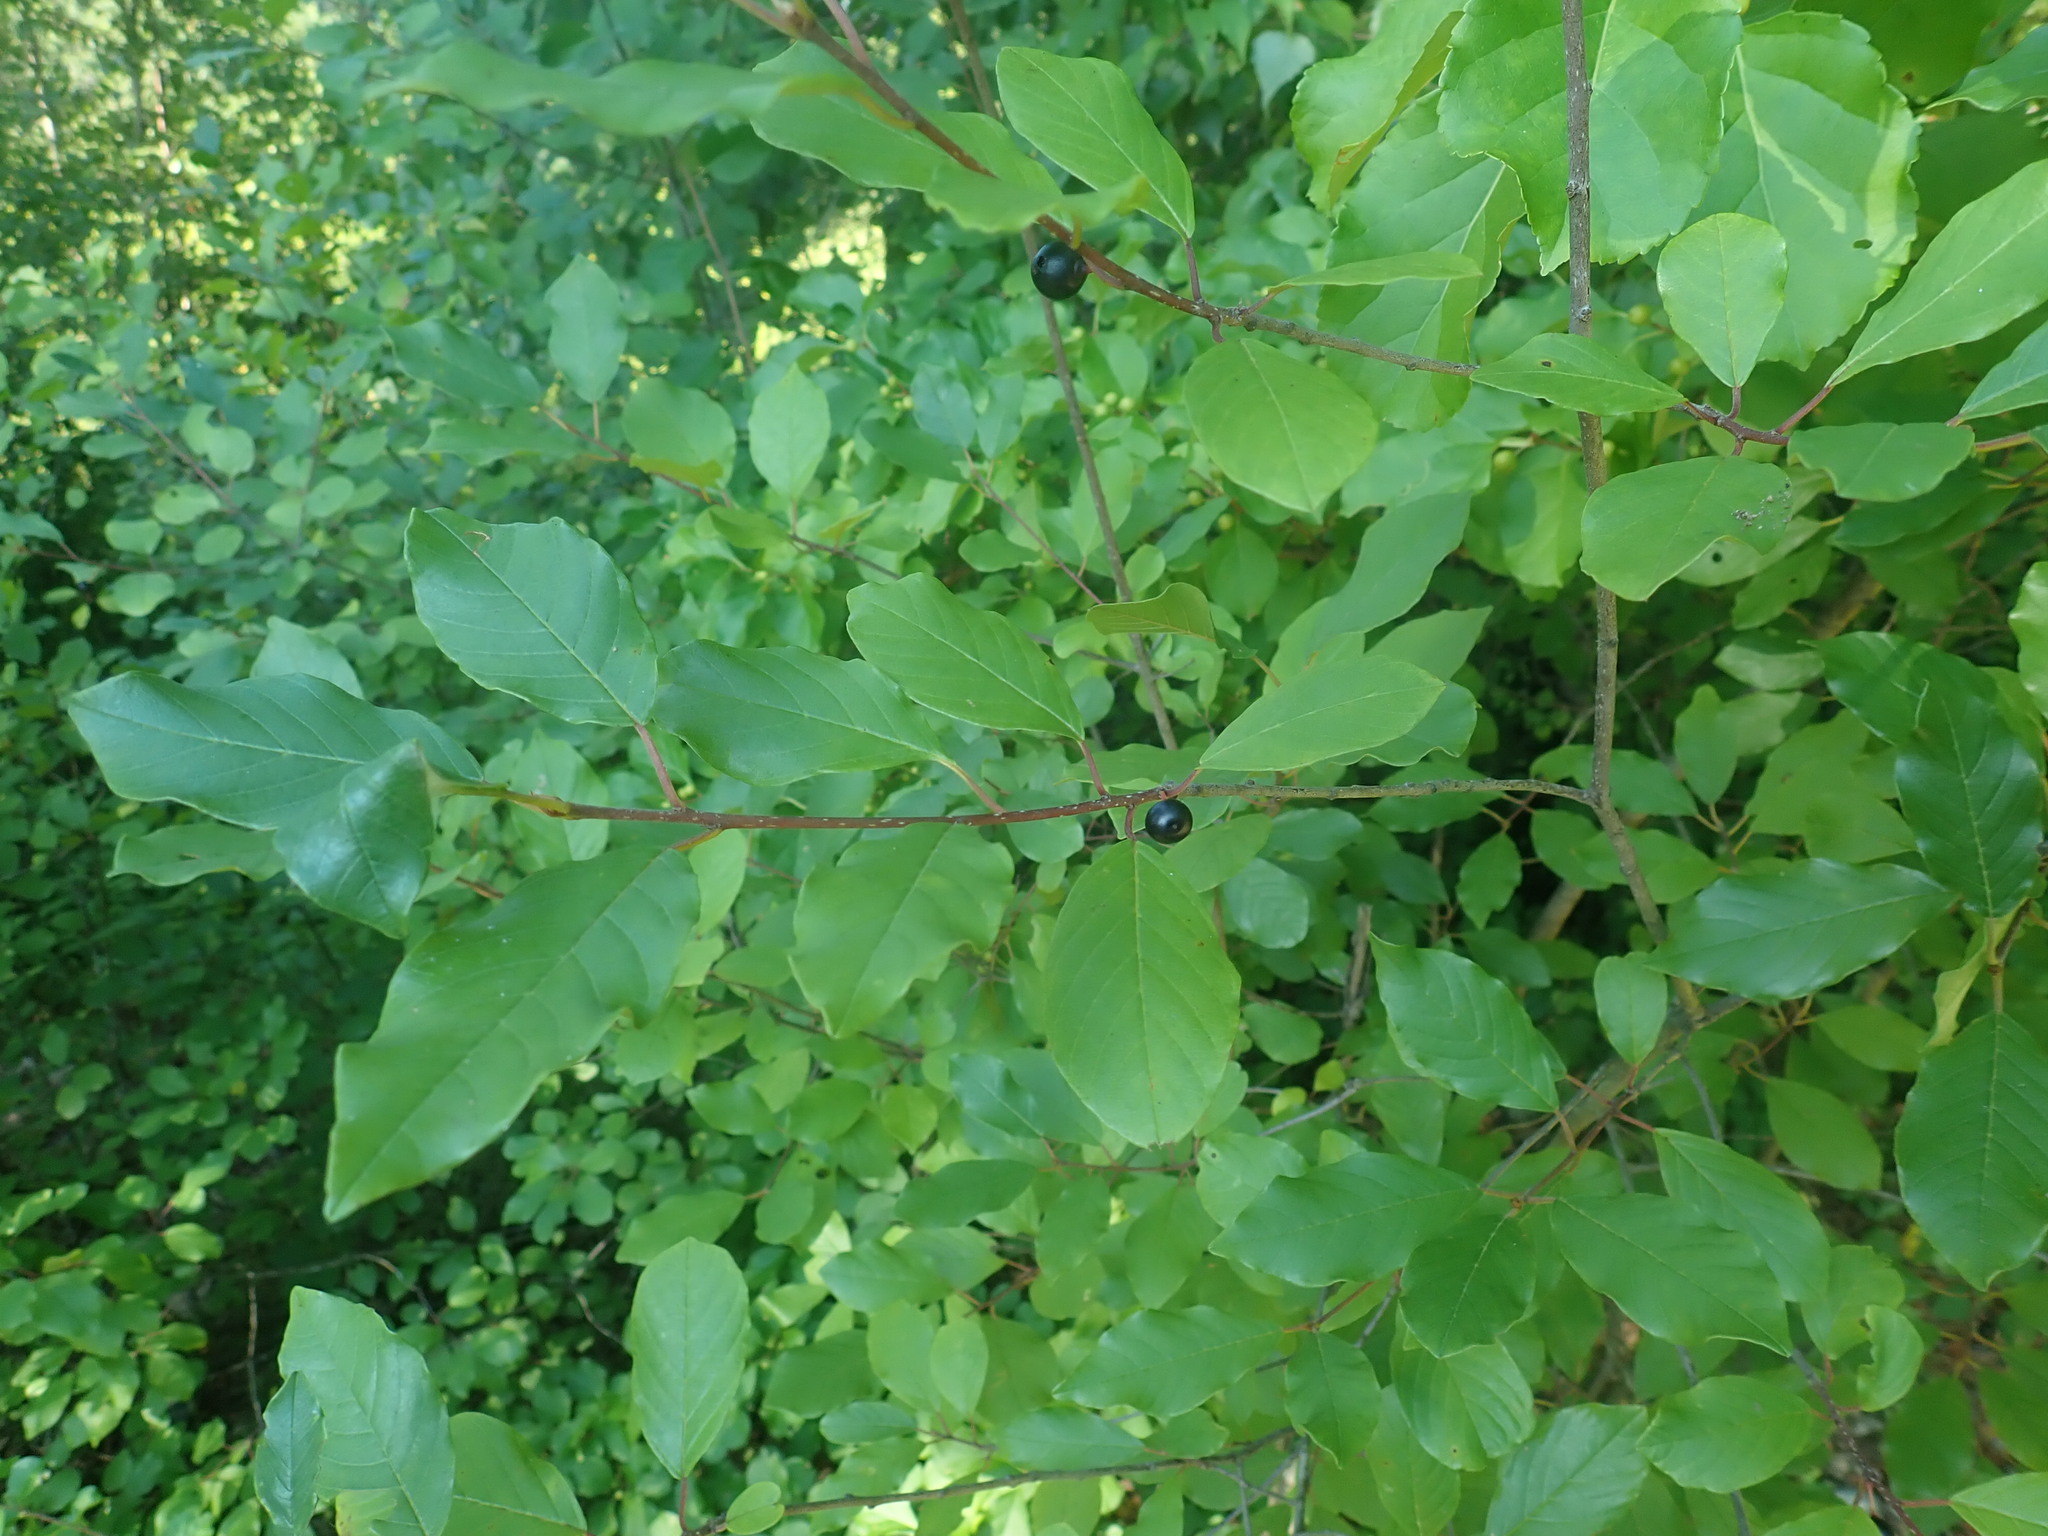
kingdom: Plantae
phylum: Tracheophyta
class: Magnoliopsida
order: Rosales
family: Rhamnaceae
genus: Frangula
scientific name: Frangula alnus
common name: Alder buckthorn
